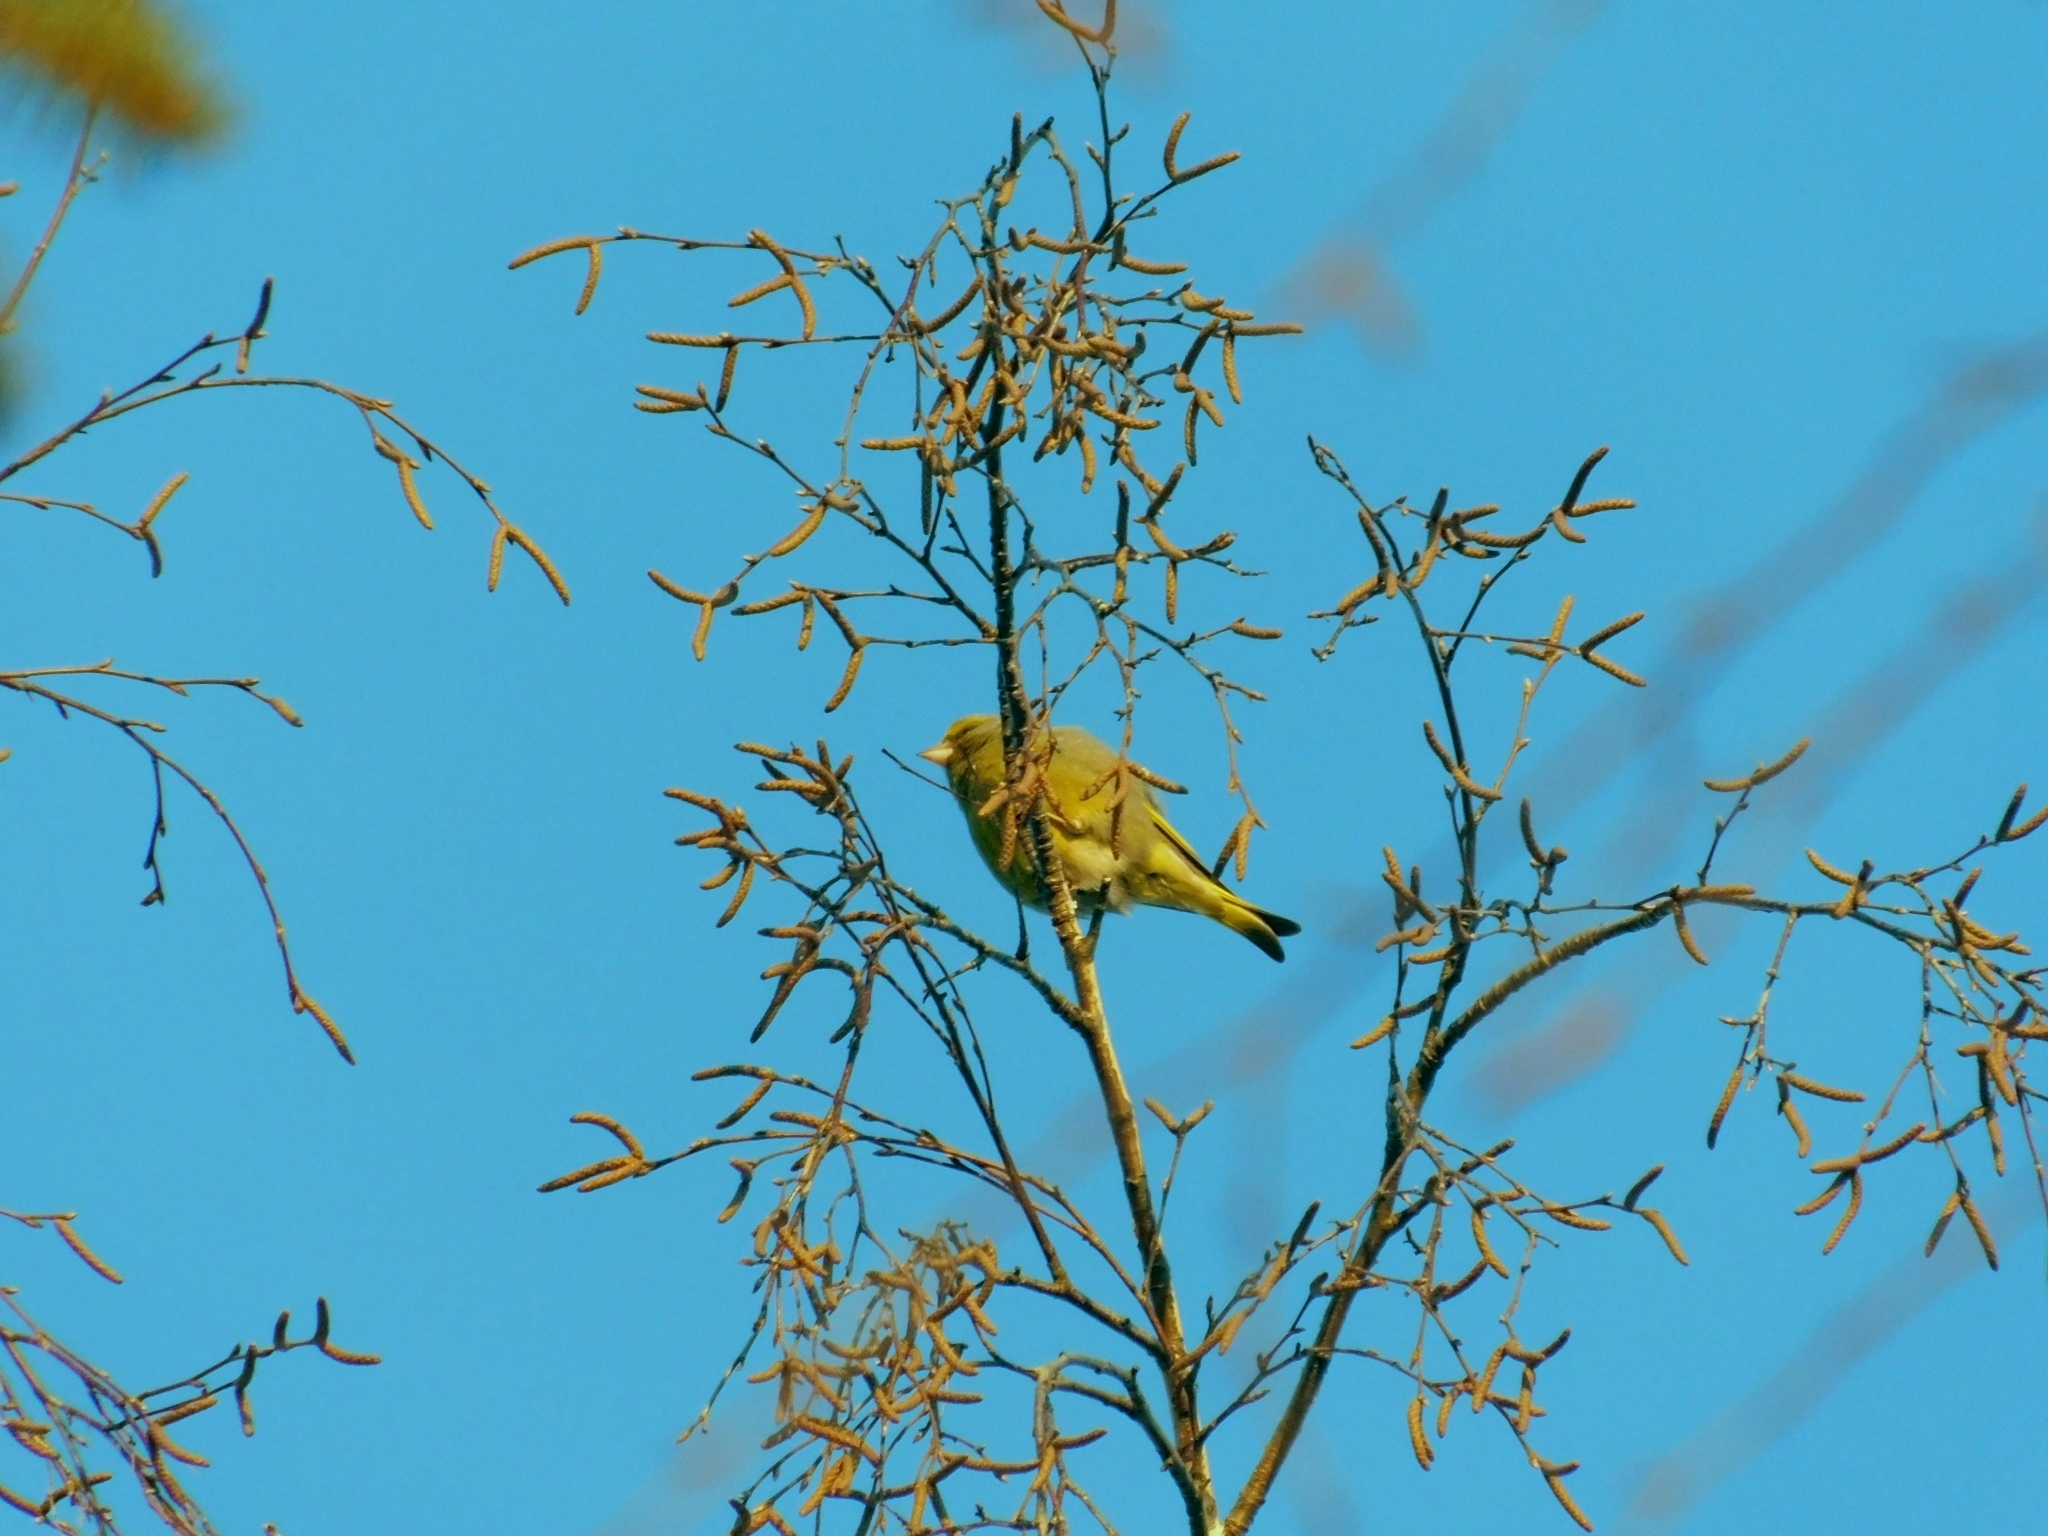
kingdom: Plantae
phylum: Tracheophyta
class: Liliopsida
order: Poales
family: Poaceae
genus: Chloris
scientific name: Chloris chloris
